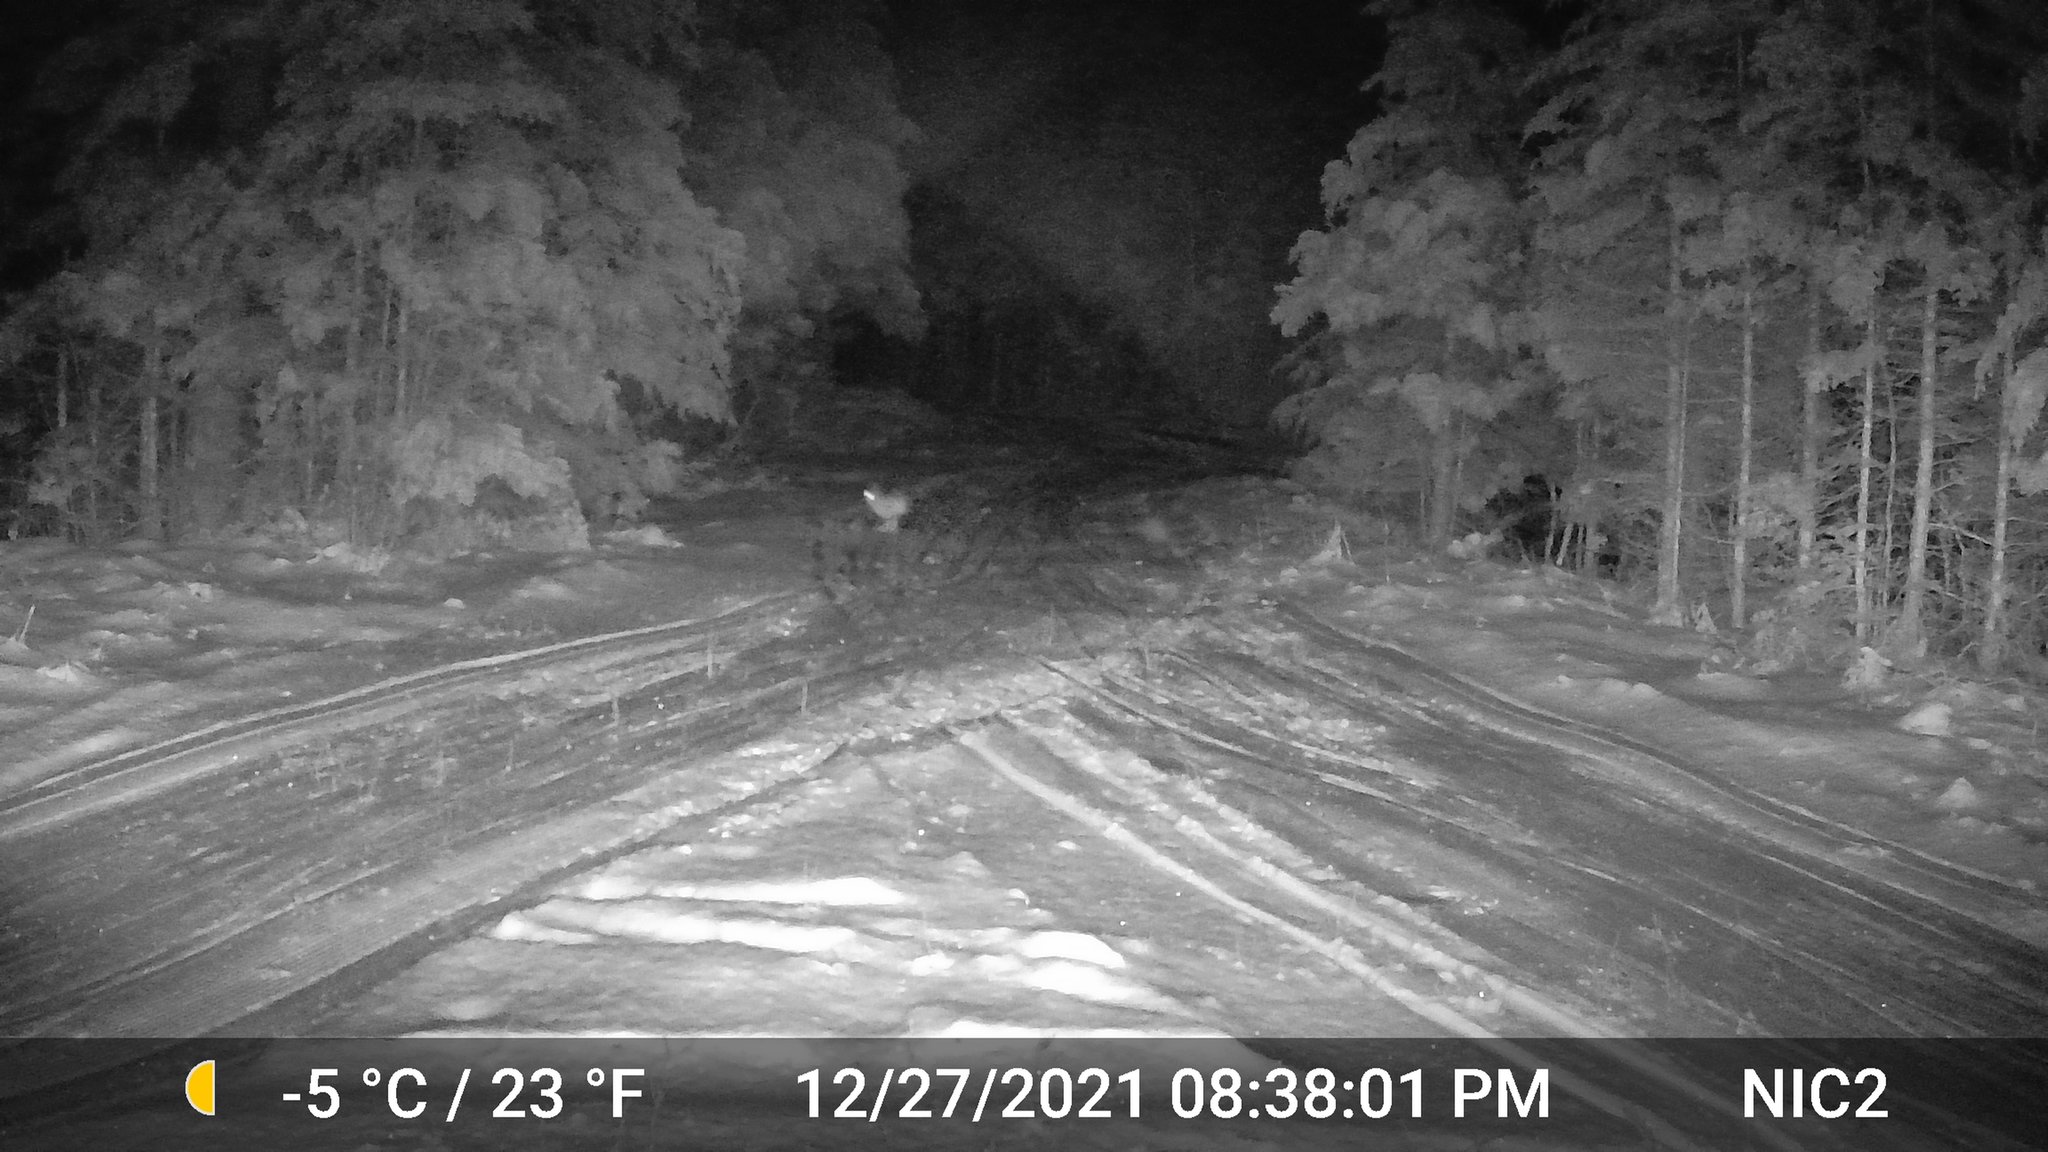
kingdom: Animalia
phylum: Chordata
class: Mammalia
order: Lagomorpha
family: Leporidae
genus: Lepus
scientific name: Lepus americanus
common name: Snowshoe hare
